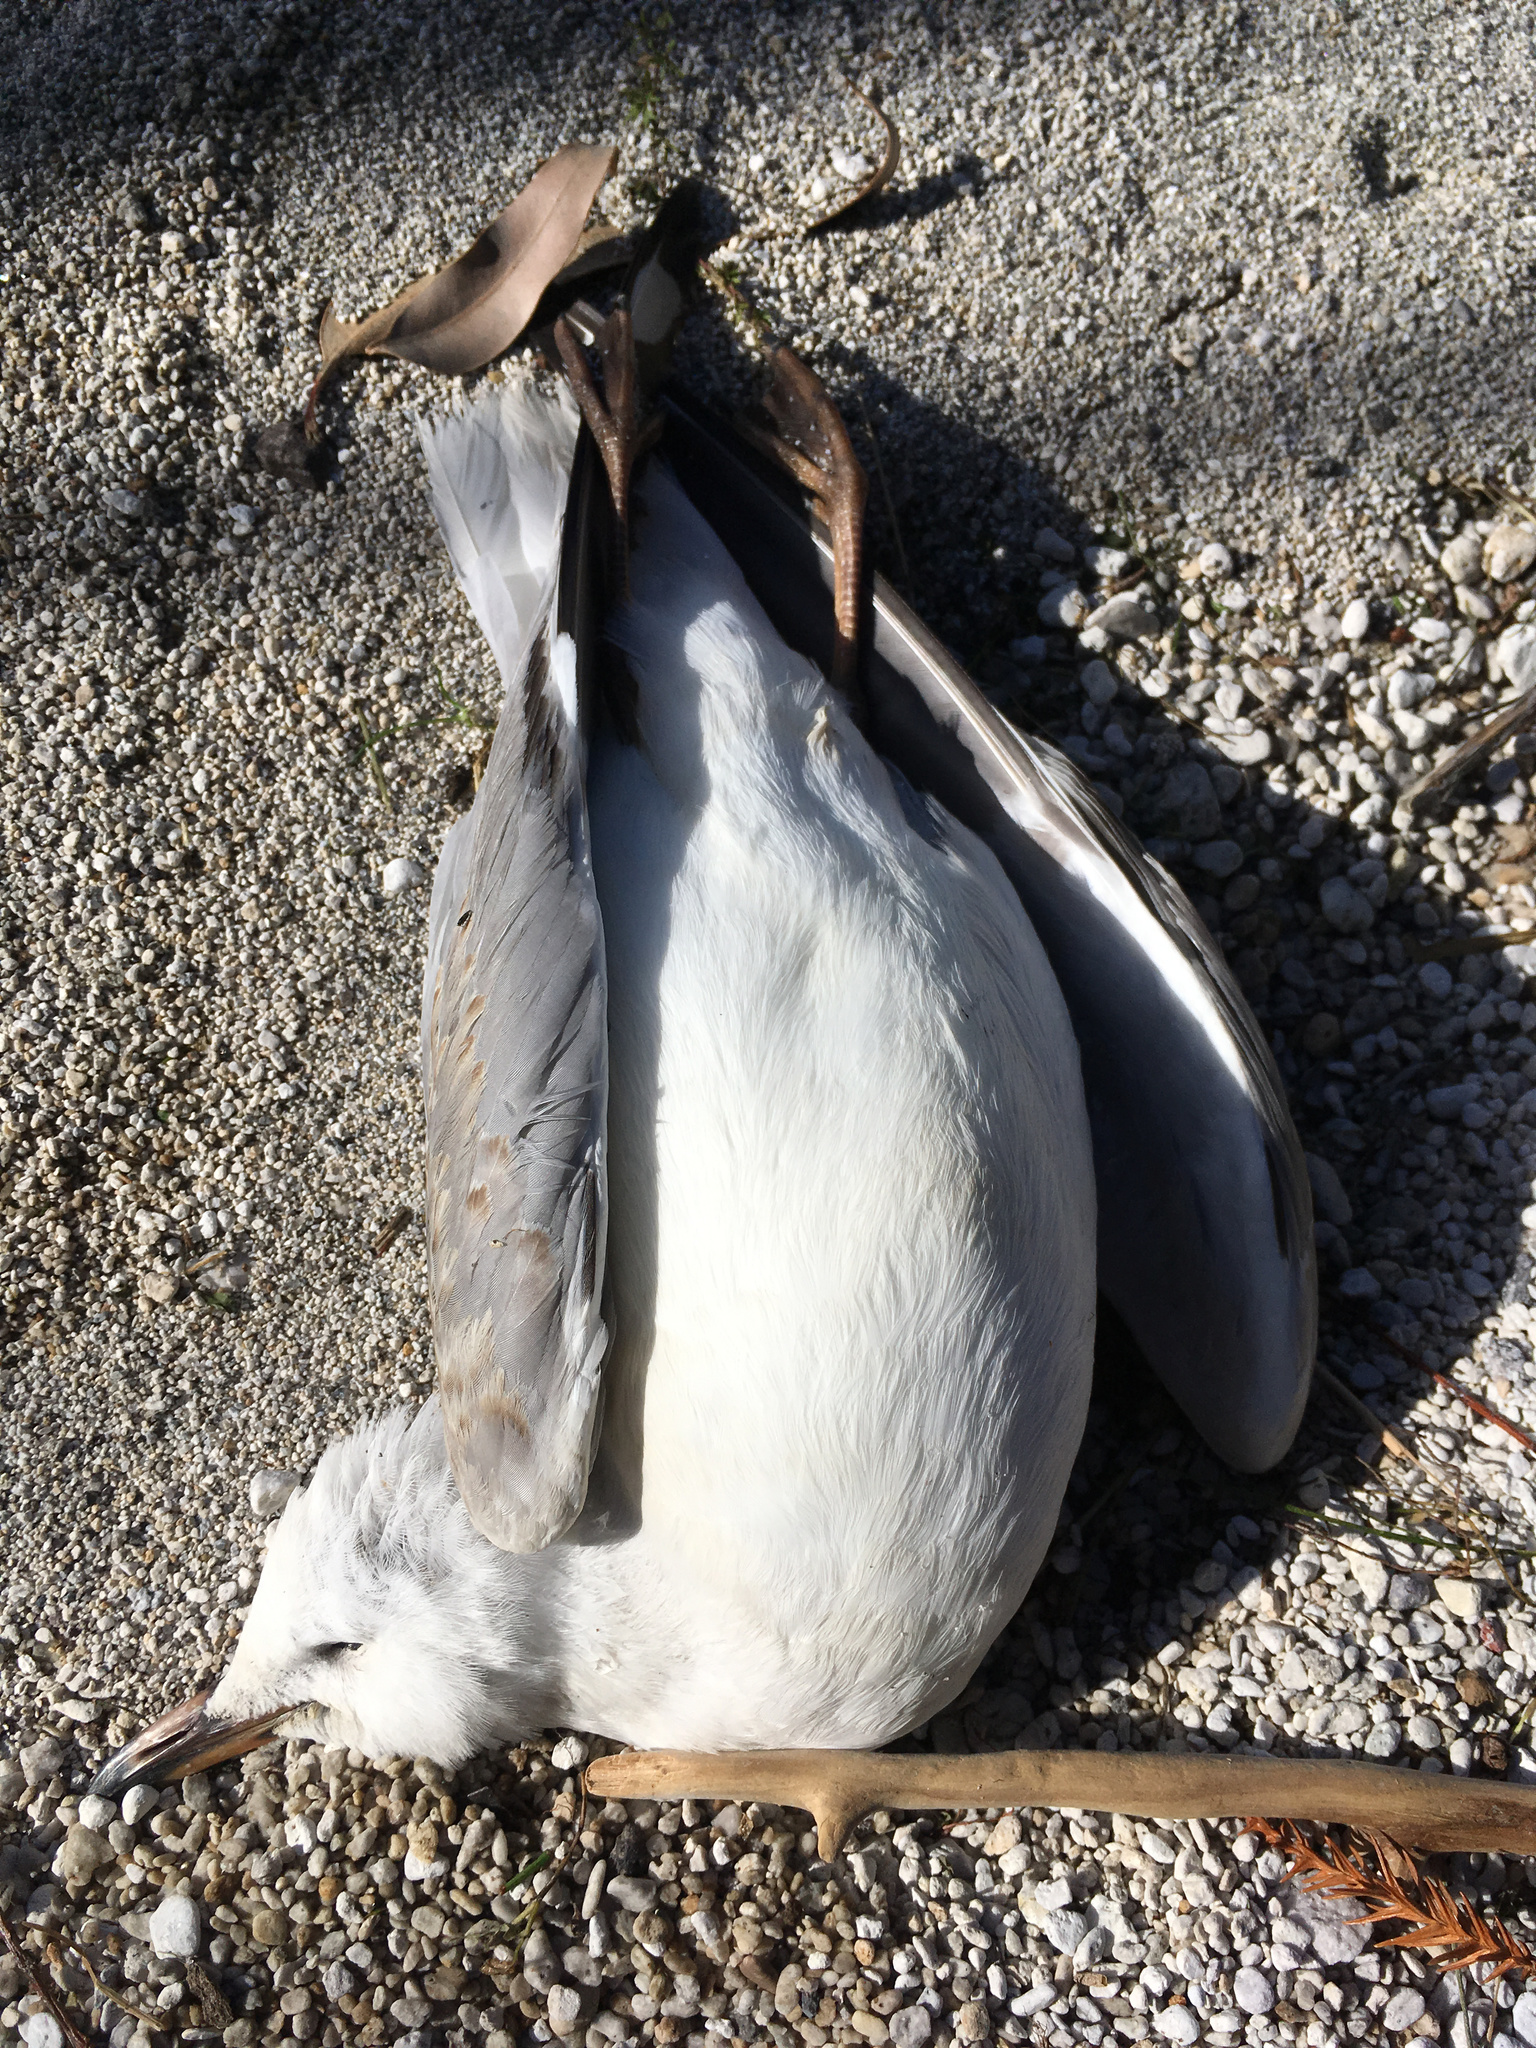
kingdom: Animalia
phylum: Chordata
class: Aves
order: Charadriiformes
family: Laridae
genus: Chroicocephalus
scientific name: Chroicocephalus novaehollandiae
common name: Silver gull
